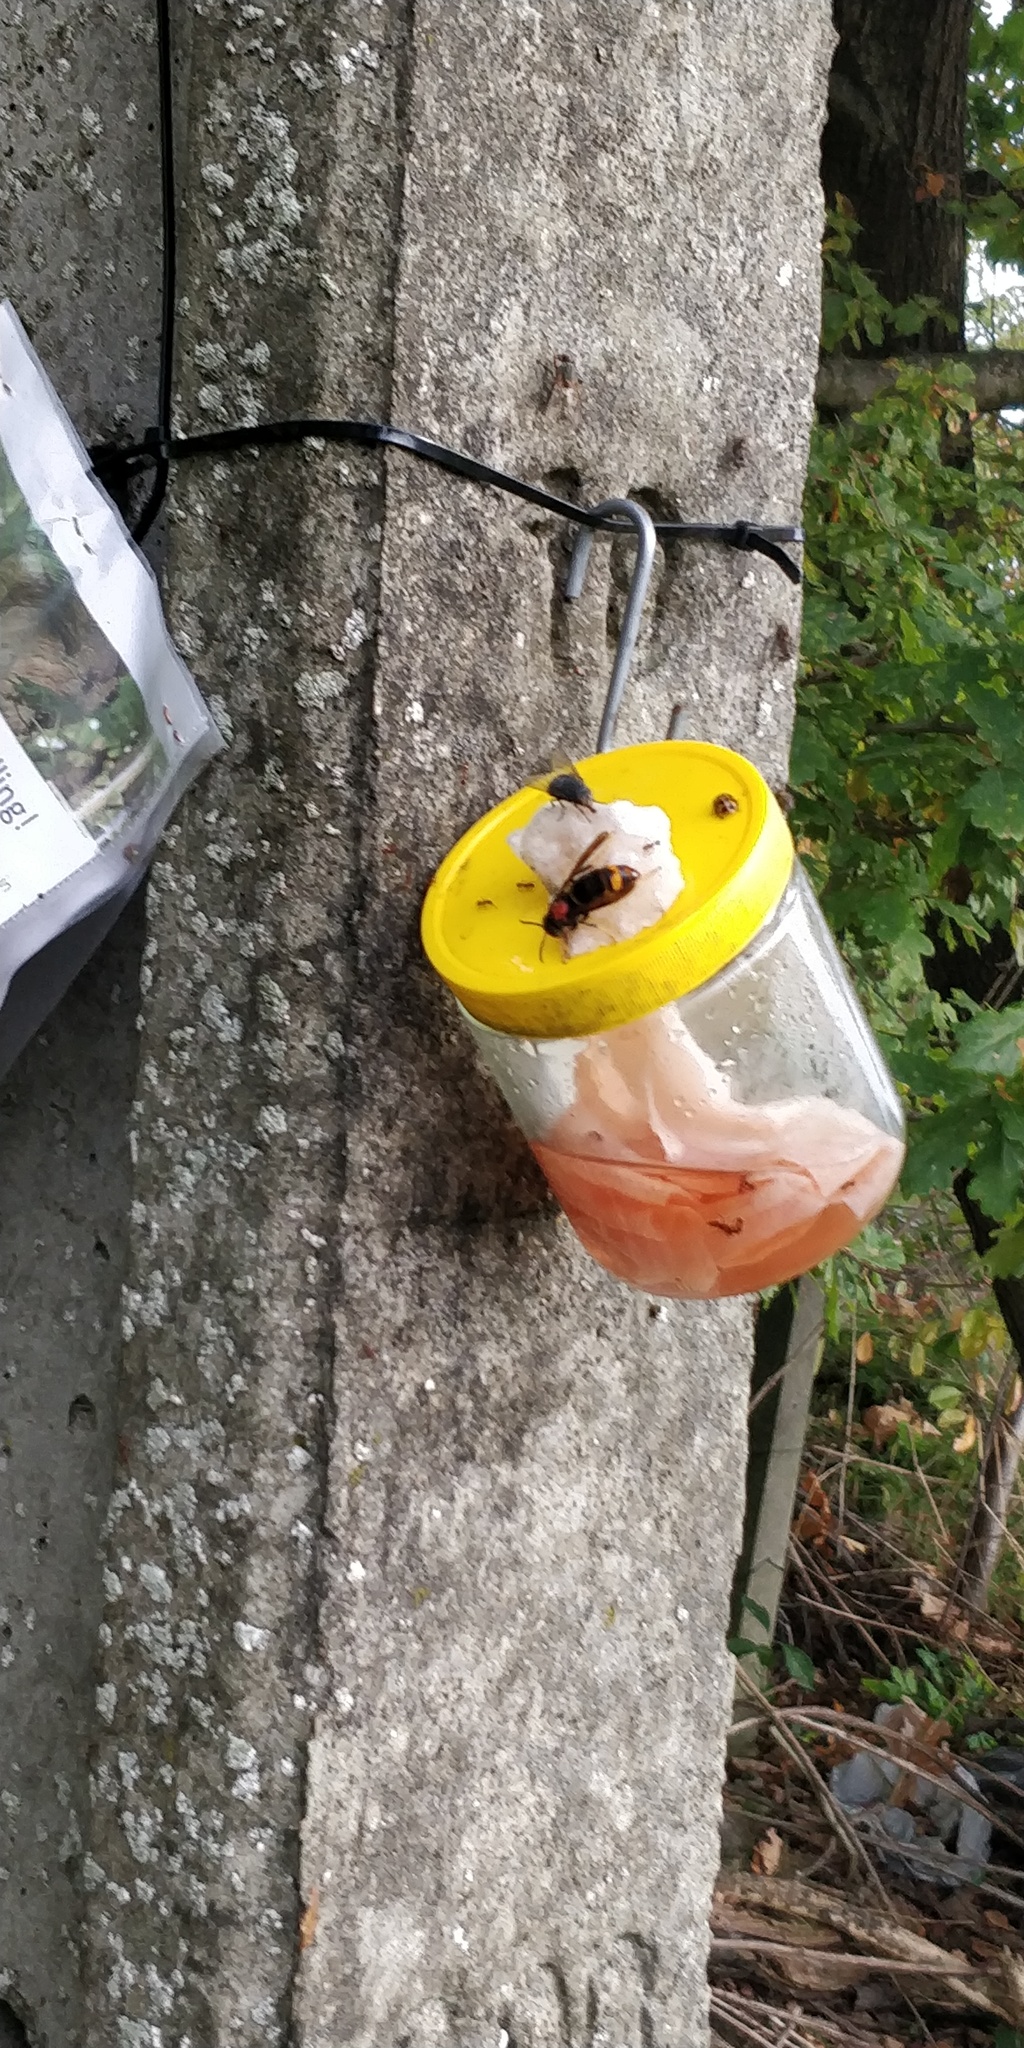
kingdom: Animalia
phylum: Arthropoda
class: Insecta
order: Hymenoptera
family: Vespidae
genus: Vespa
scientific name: Vespa velutina
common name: Asian hornet
